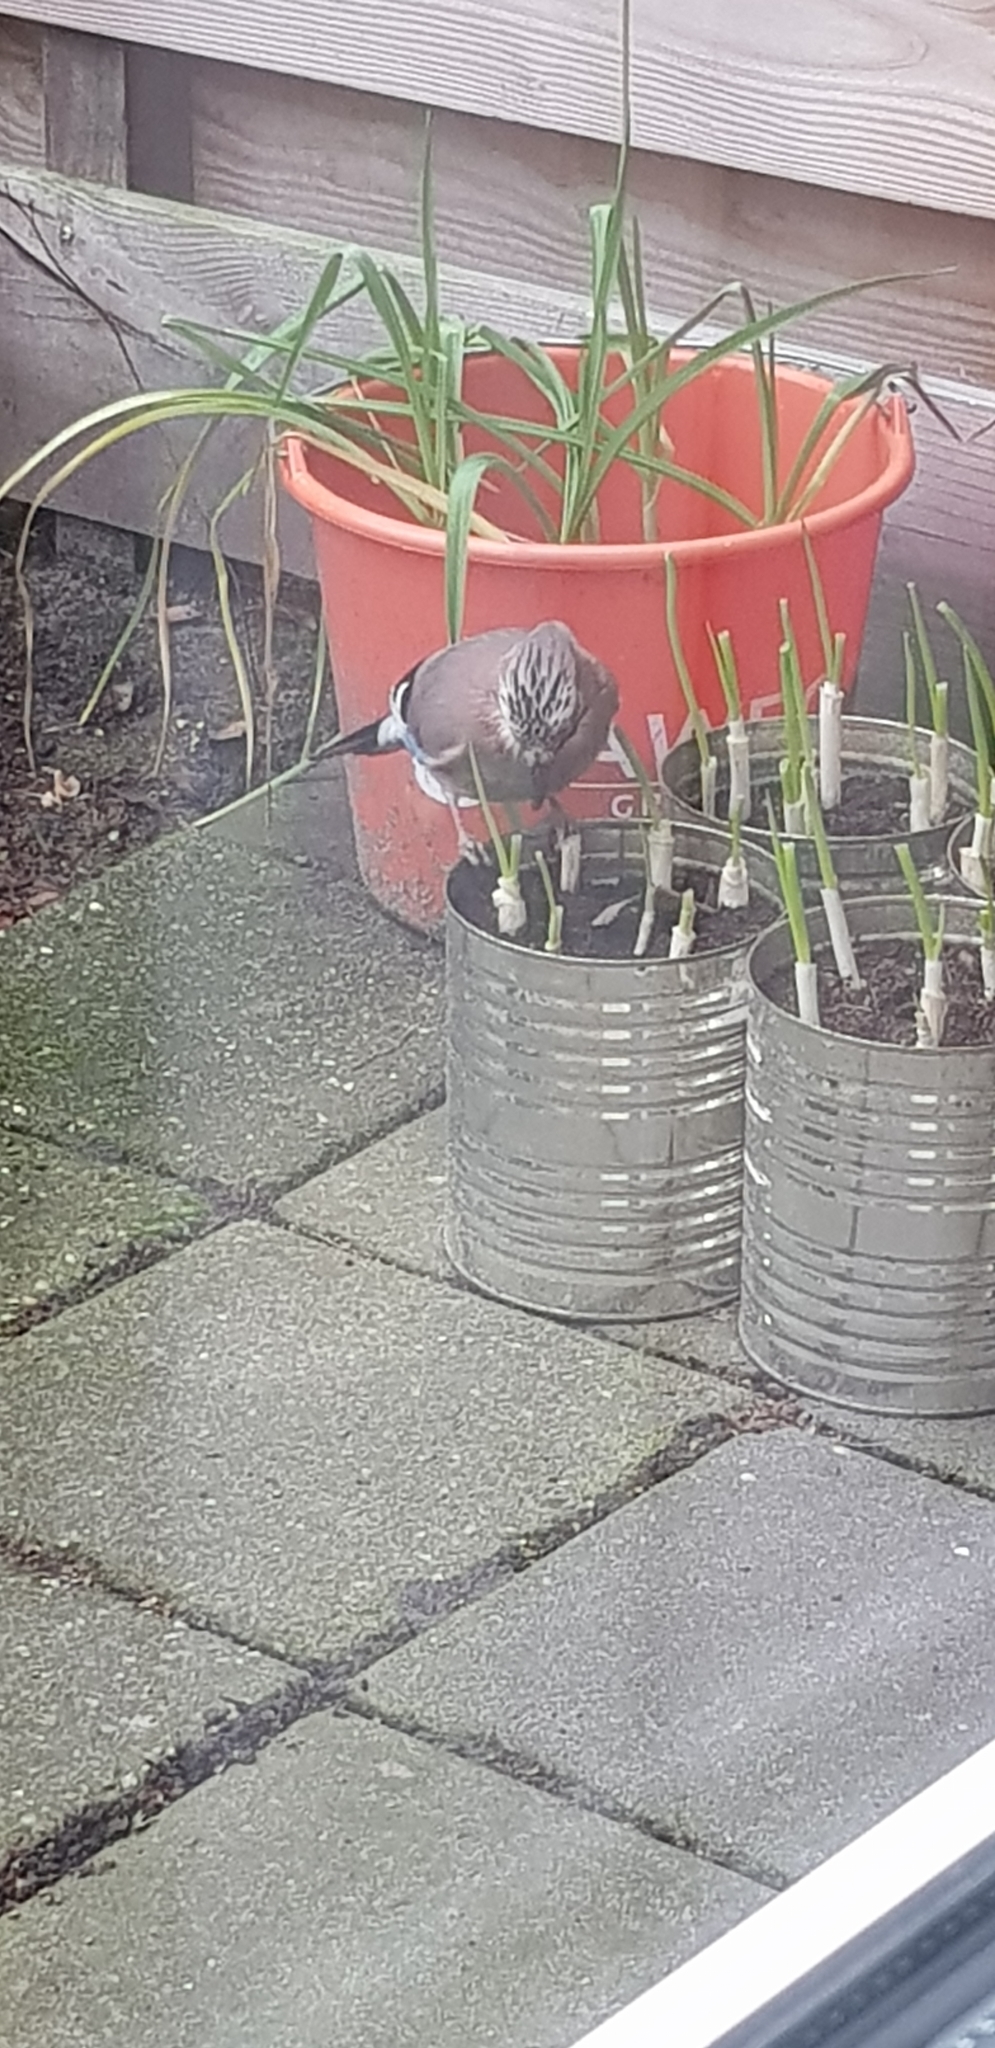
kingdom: Animalia
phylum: Chordata
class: Aves
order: Passeriformes
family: Corvidae
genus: Garrulus
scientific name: Garrulus glandarius
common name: Eurasian jay
